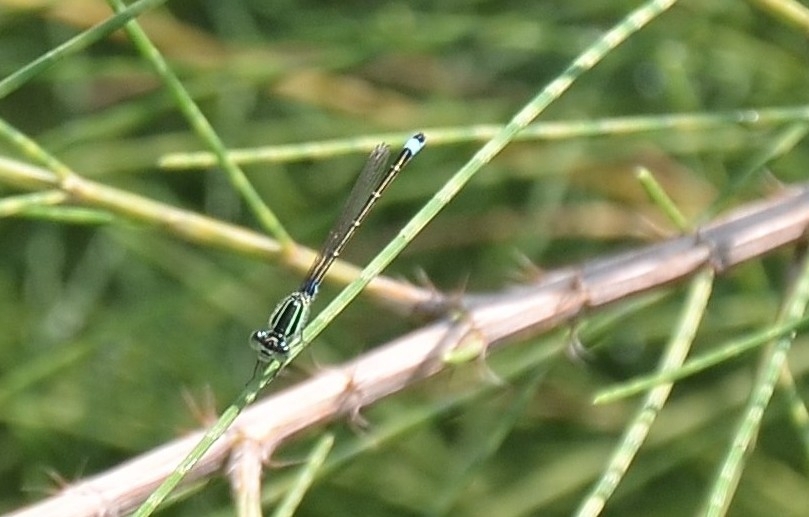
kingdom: Animalia
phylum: Arthropoda
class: Insecta
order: Odonata
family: Coenagrionidae
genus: Ischnura
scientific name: Ischnura senegalensis
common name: Tropical bluetail
